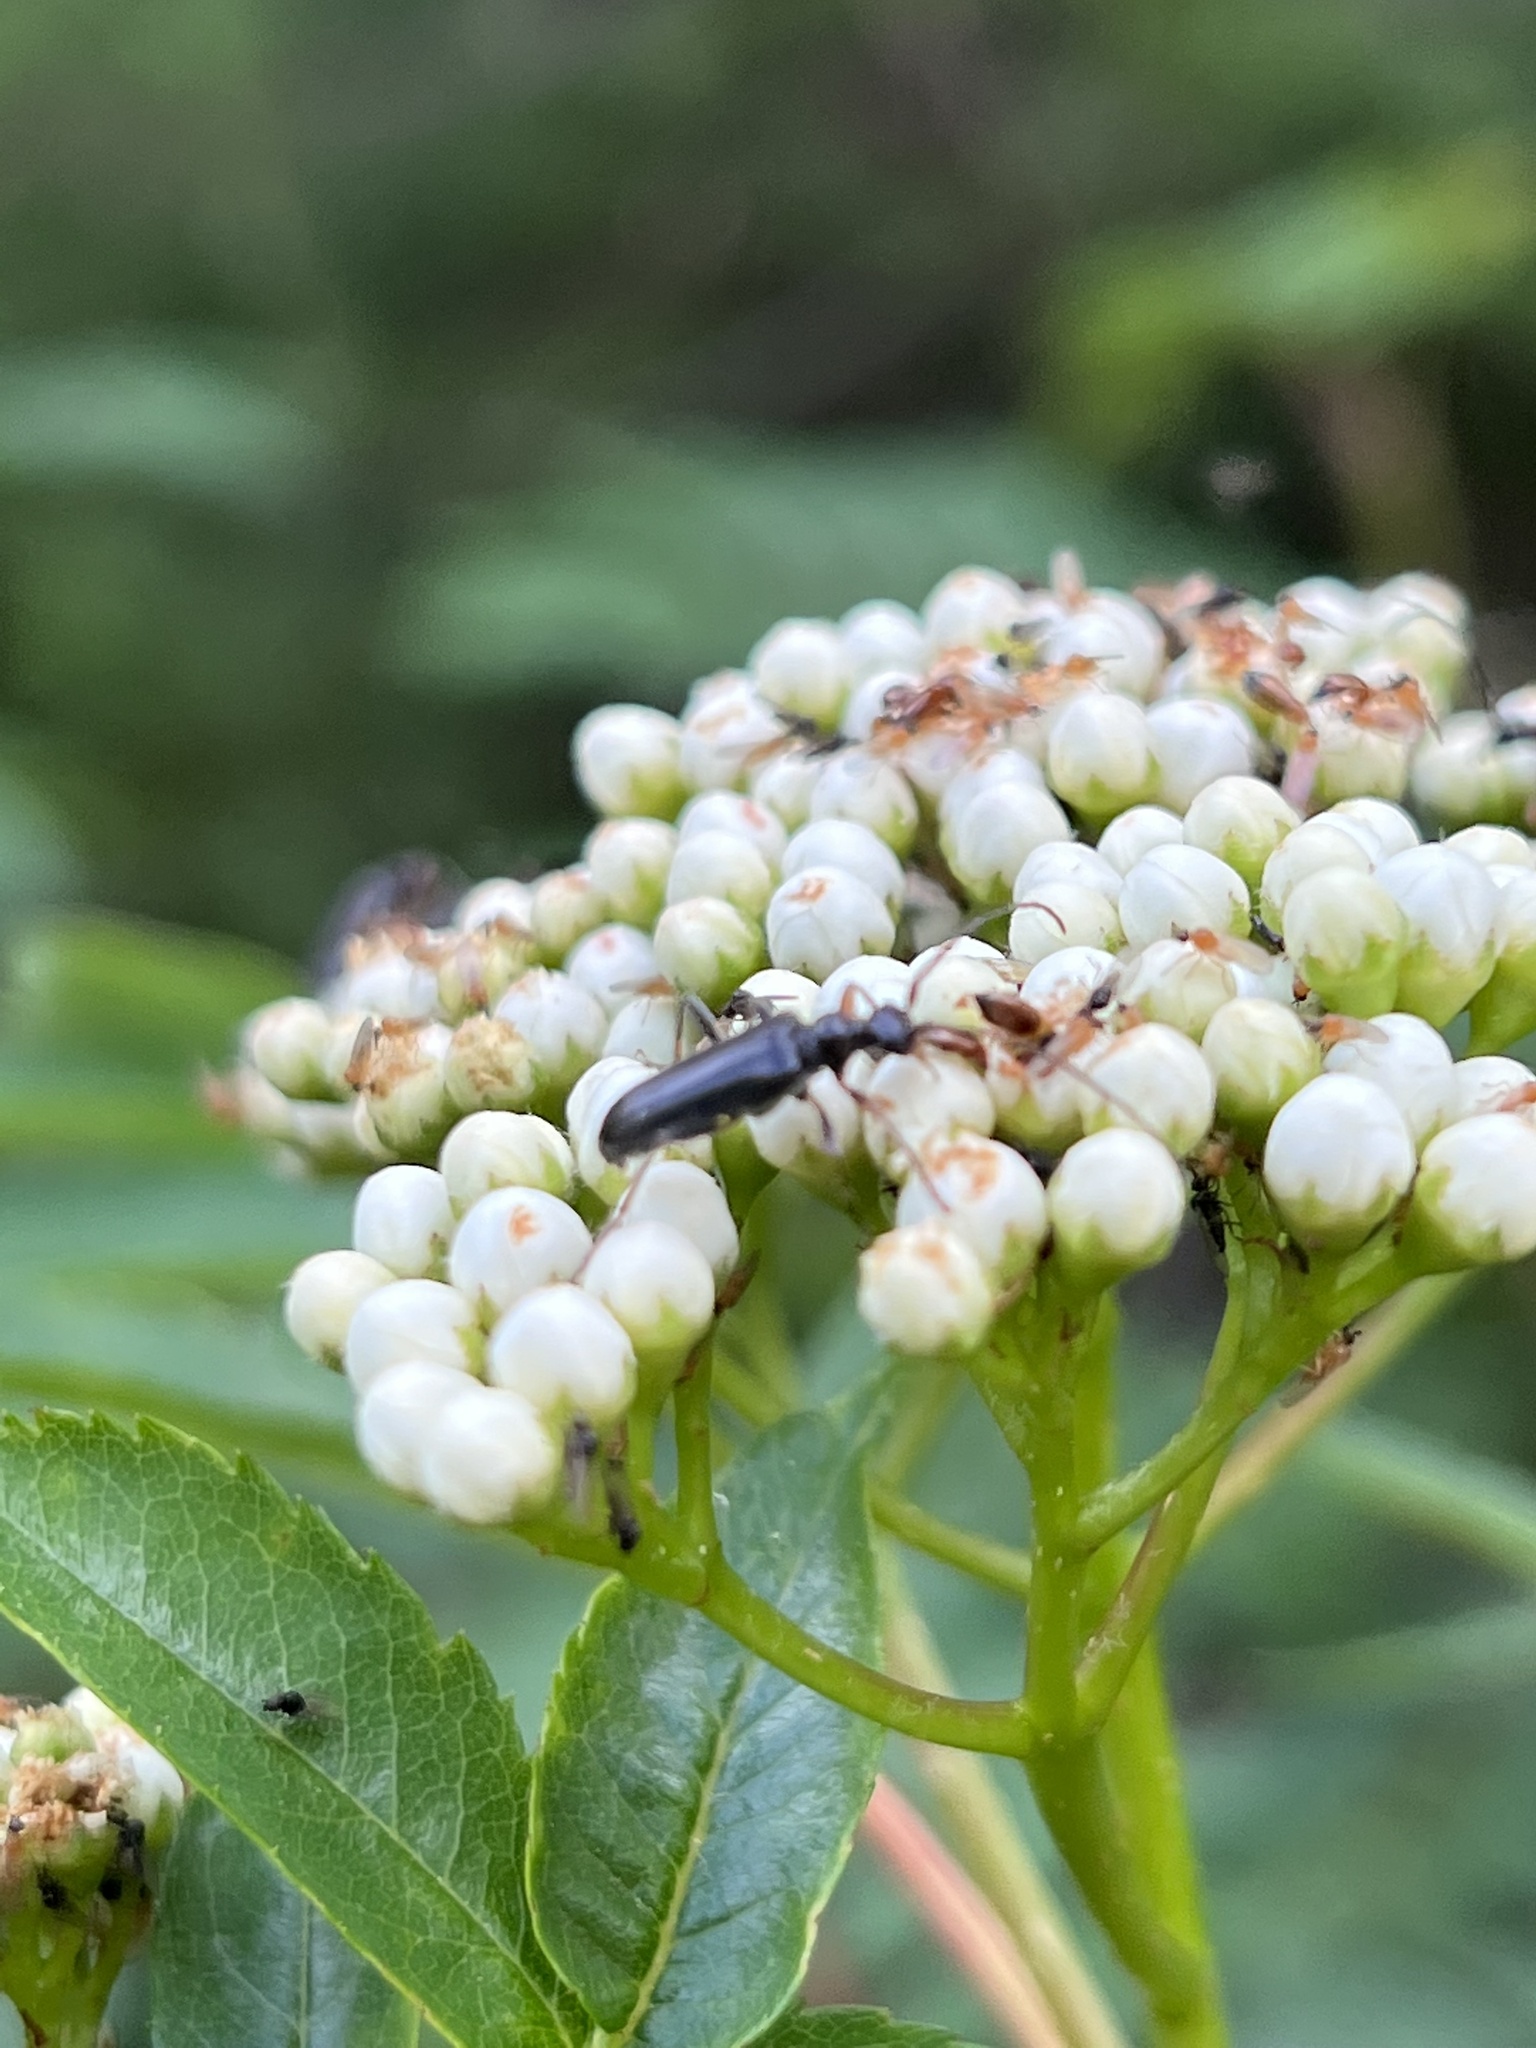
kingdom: Animalia
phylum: Arthropoda
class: Insecta
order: Coleoptera
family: Cerambycidae
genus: Pidonia
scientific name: Pidonia ruficollis
